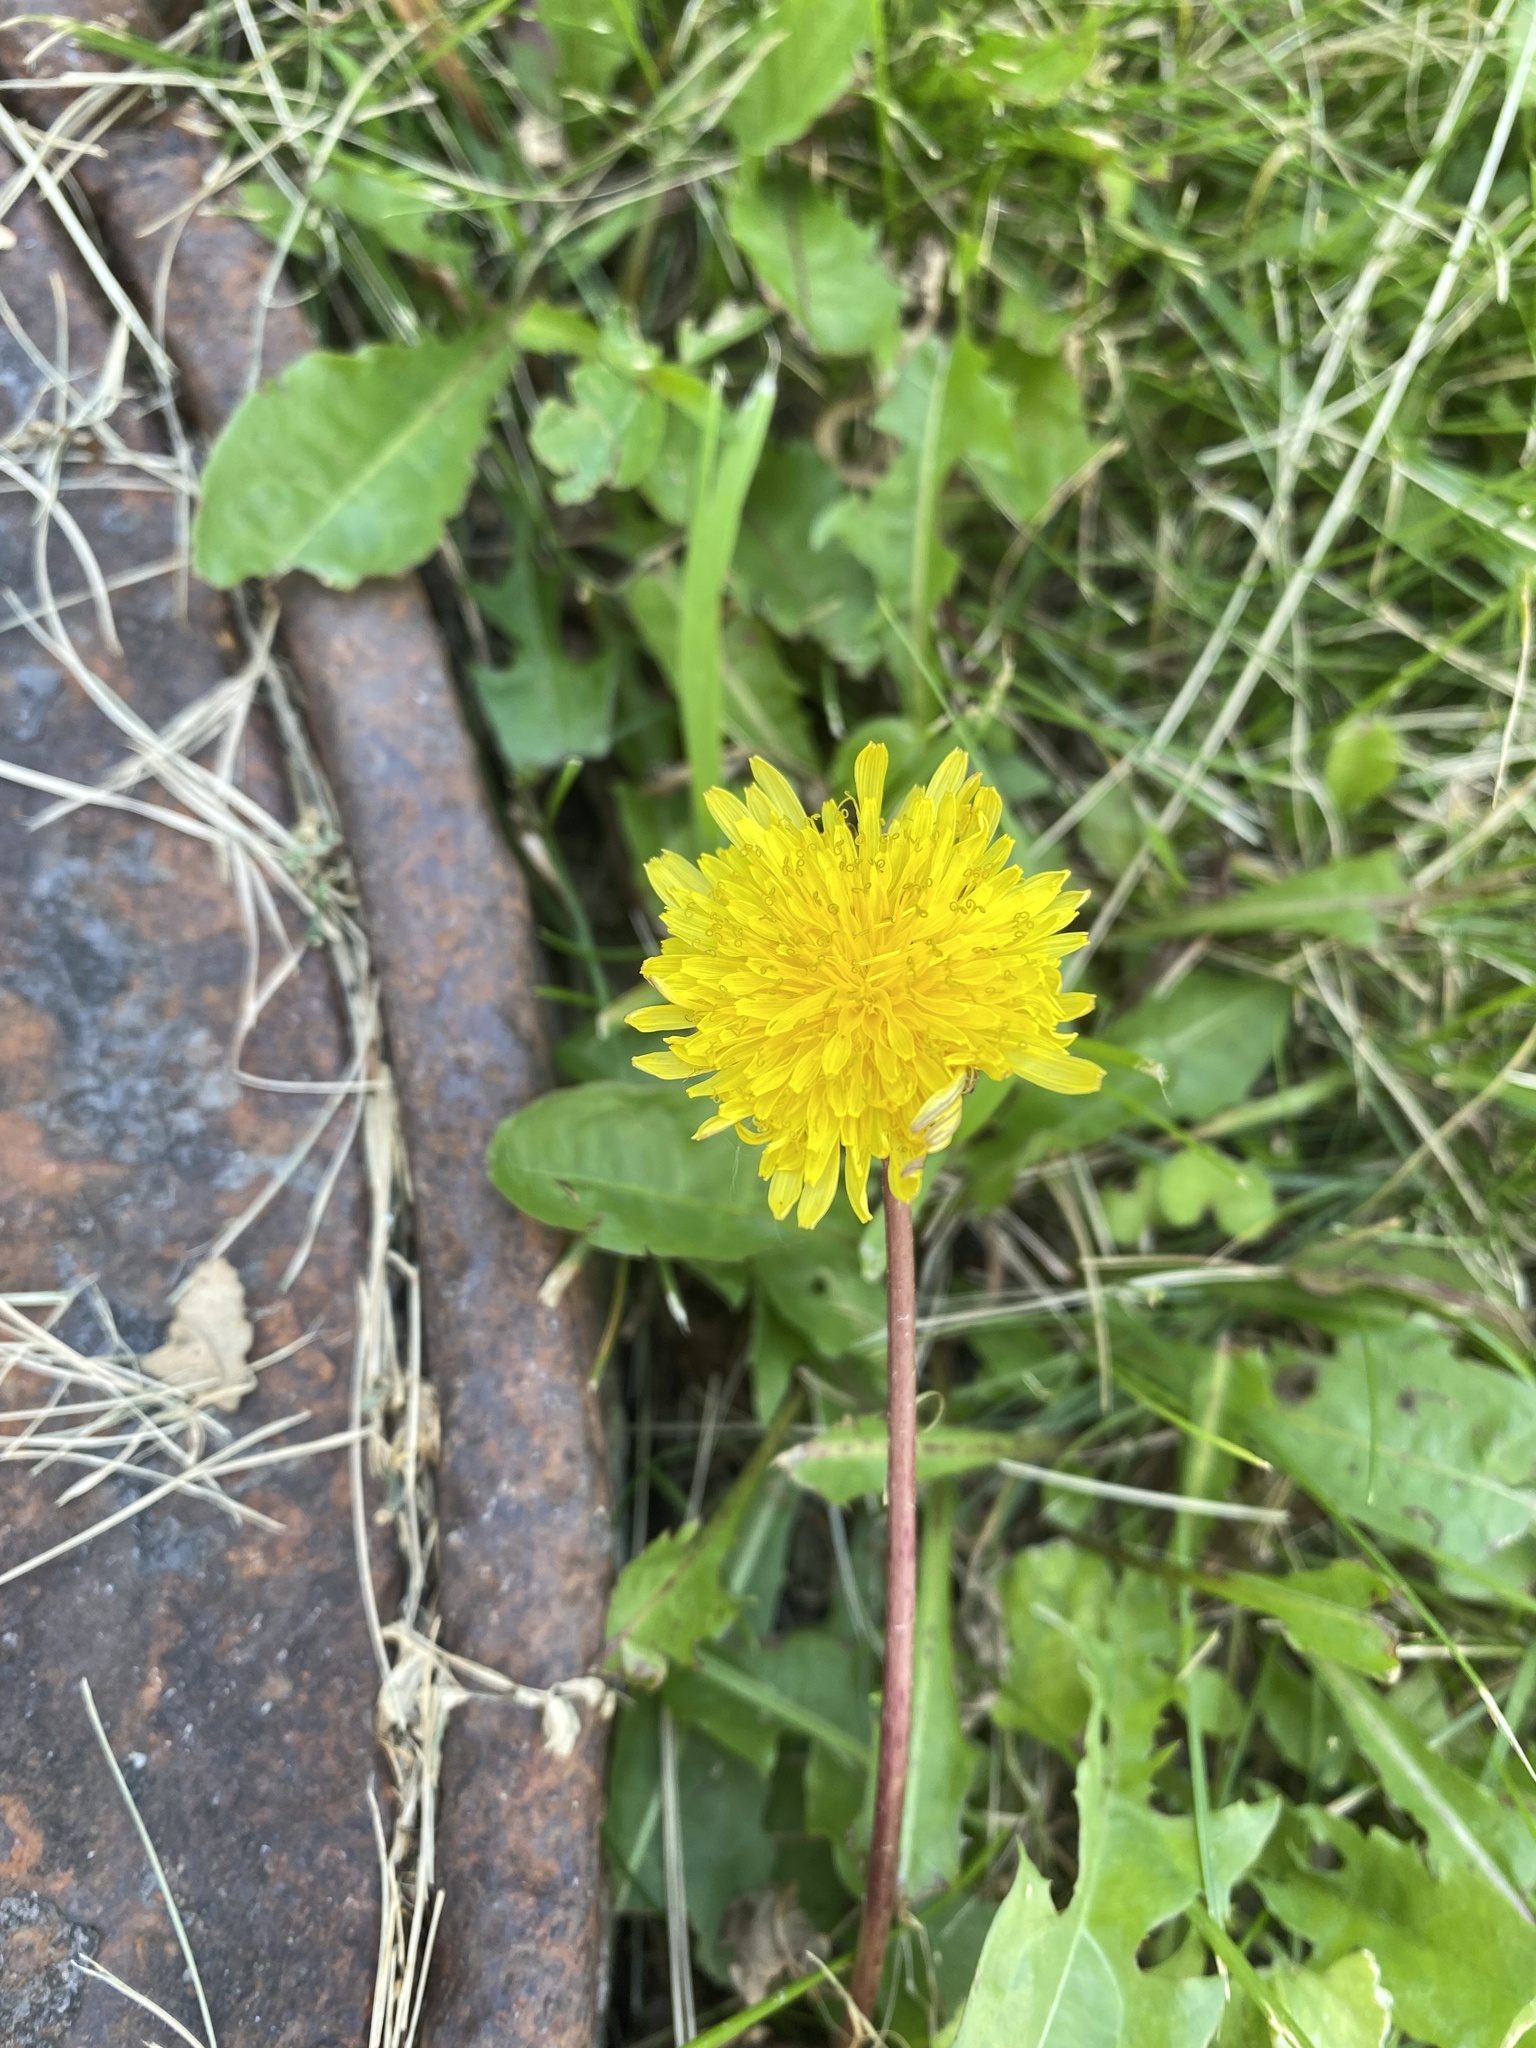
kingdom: Plantae
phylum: Tracheophyta
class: Magnoliopsida
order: Asterales
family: Asteraceae
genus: Taraxacum
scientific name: Taraxacum officinale
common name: Common dandelion
